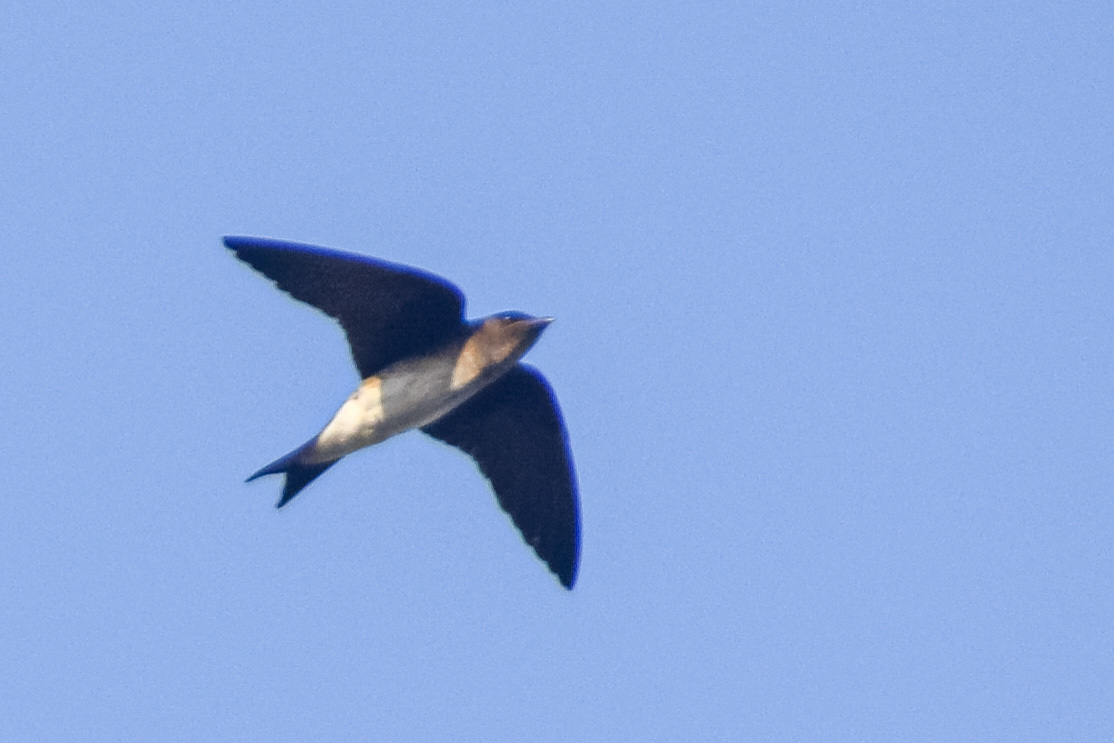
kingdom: Animalia
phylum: Chordata
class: Aves
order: Passeriformes
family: Hirundinidae
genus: Progne
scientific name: Progne chalybea
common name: Grey-breasted martin
